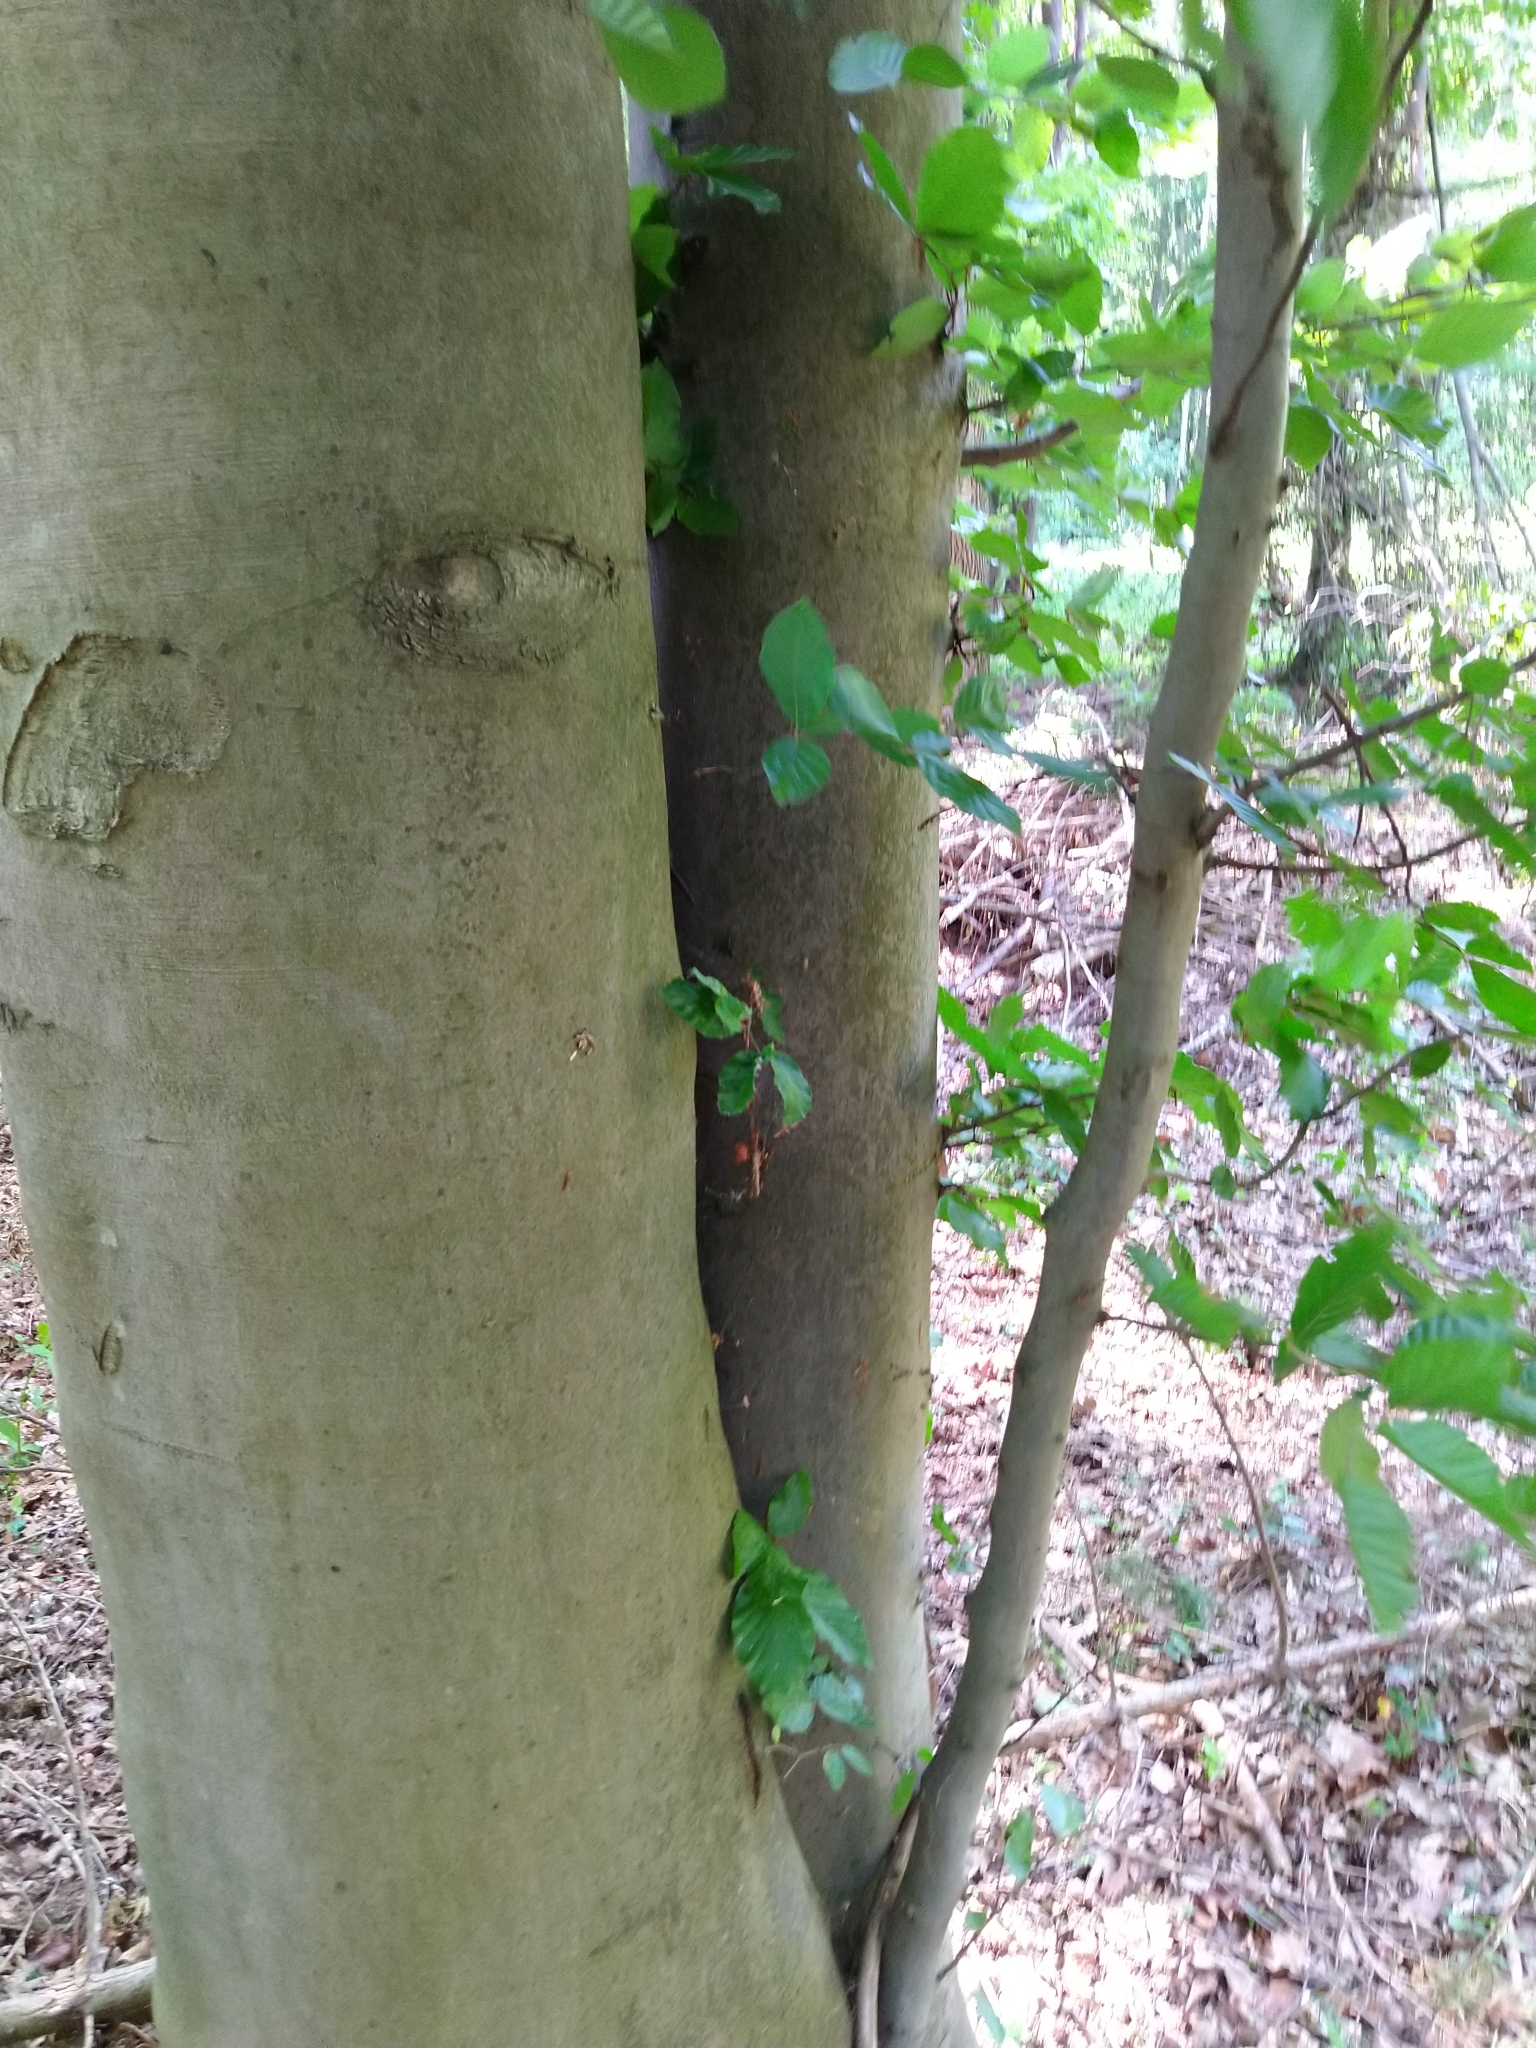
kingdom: Plantae
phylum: Tracheophyta
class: Magnoliopsida
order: Fagales
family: Fagaceae
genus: Fagus
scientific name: Fagus sylvatica
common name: Beech
